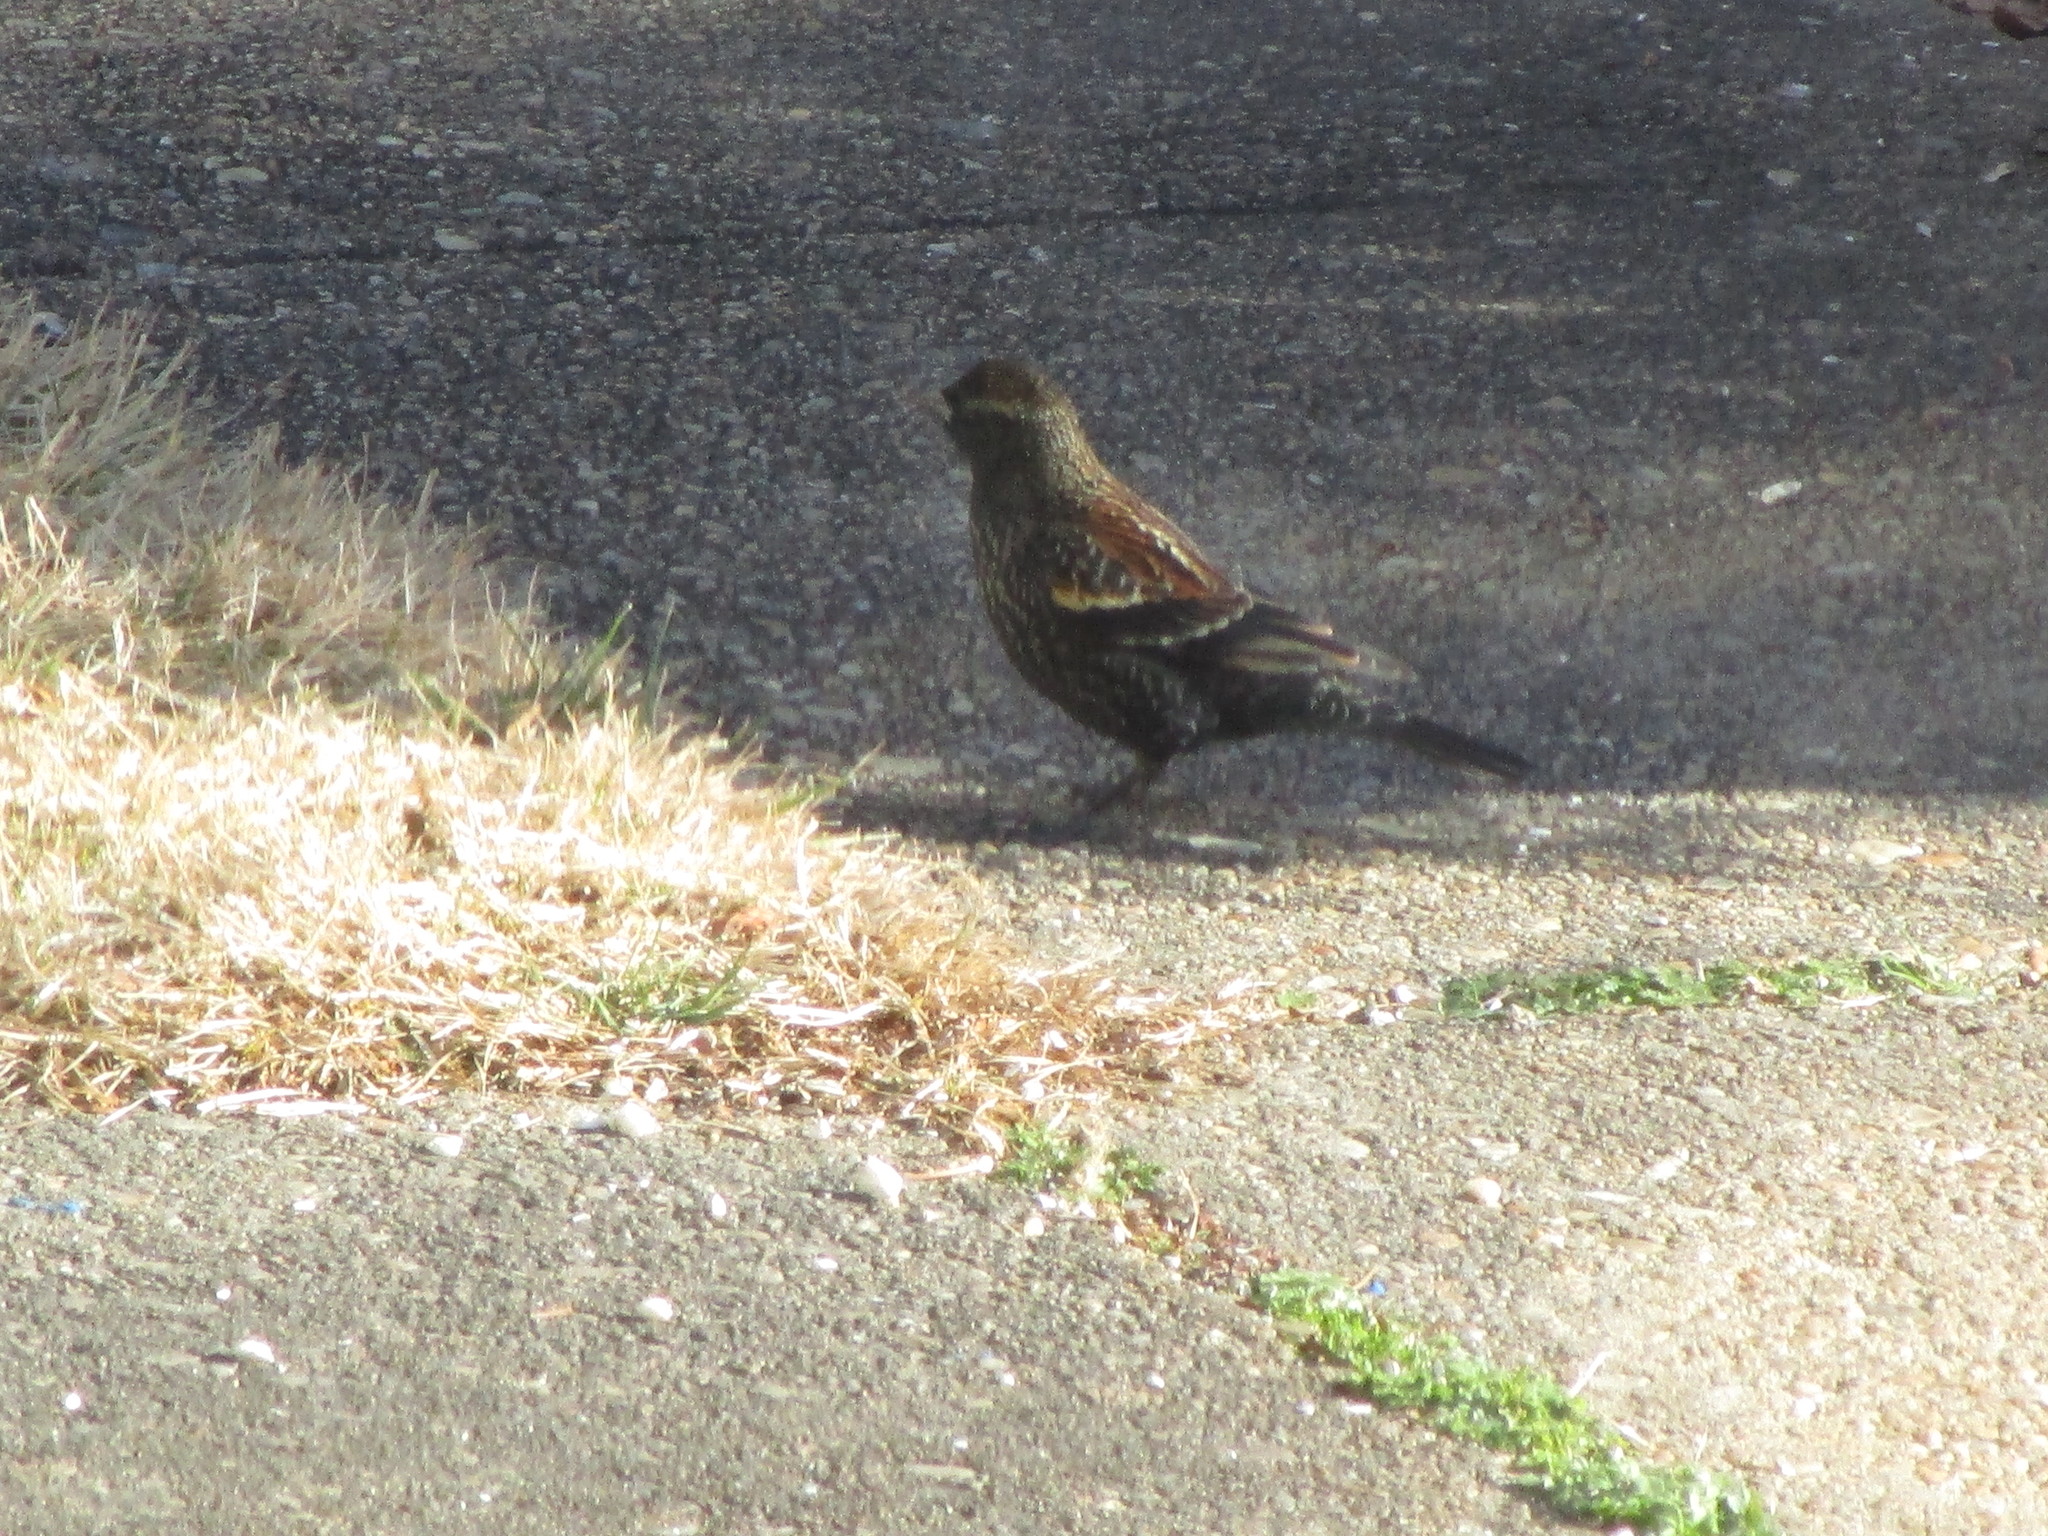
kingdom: Animalia
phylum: Chordata
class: Aves
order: Passeriformes
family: Icteridae
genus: Agelaius
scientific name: Agelaius phoeniceus
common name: Red-winged blackbird
